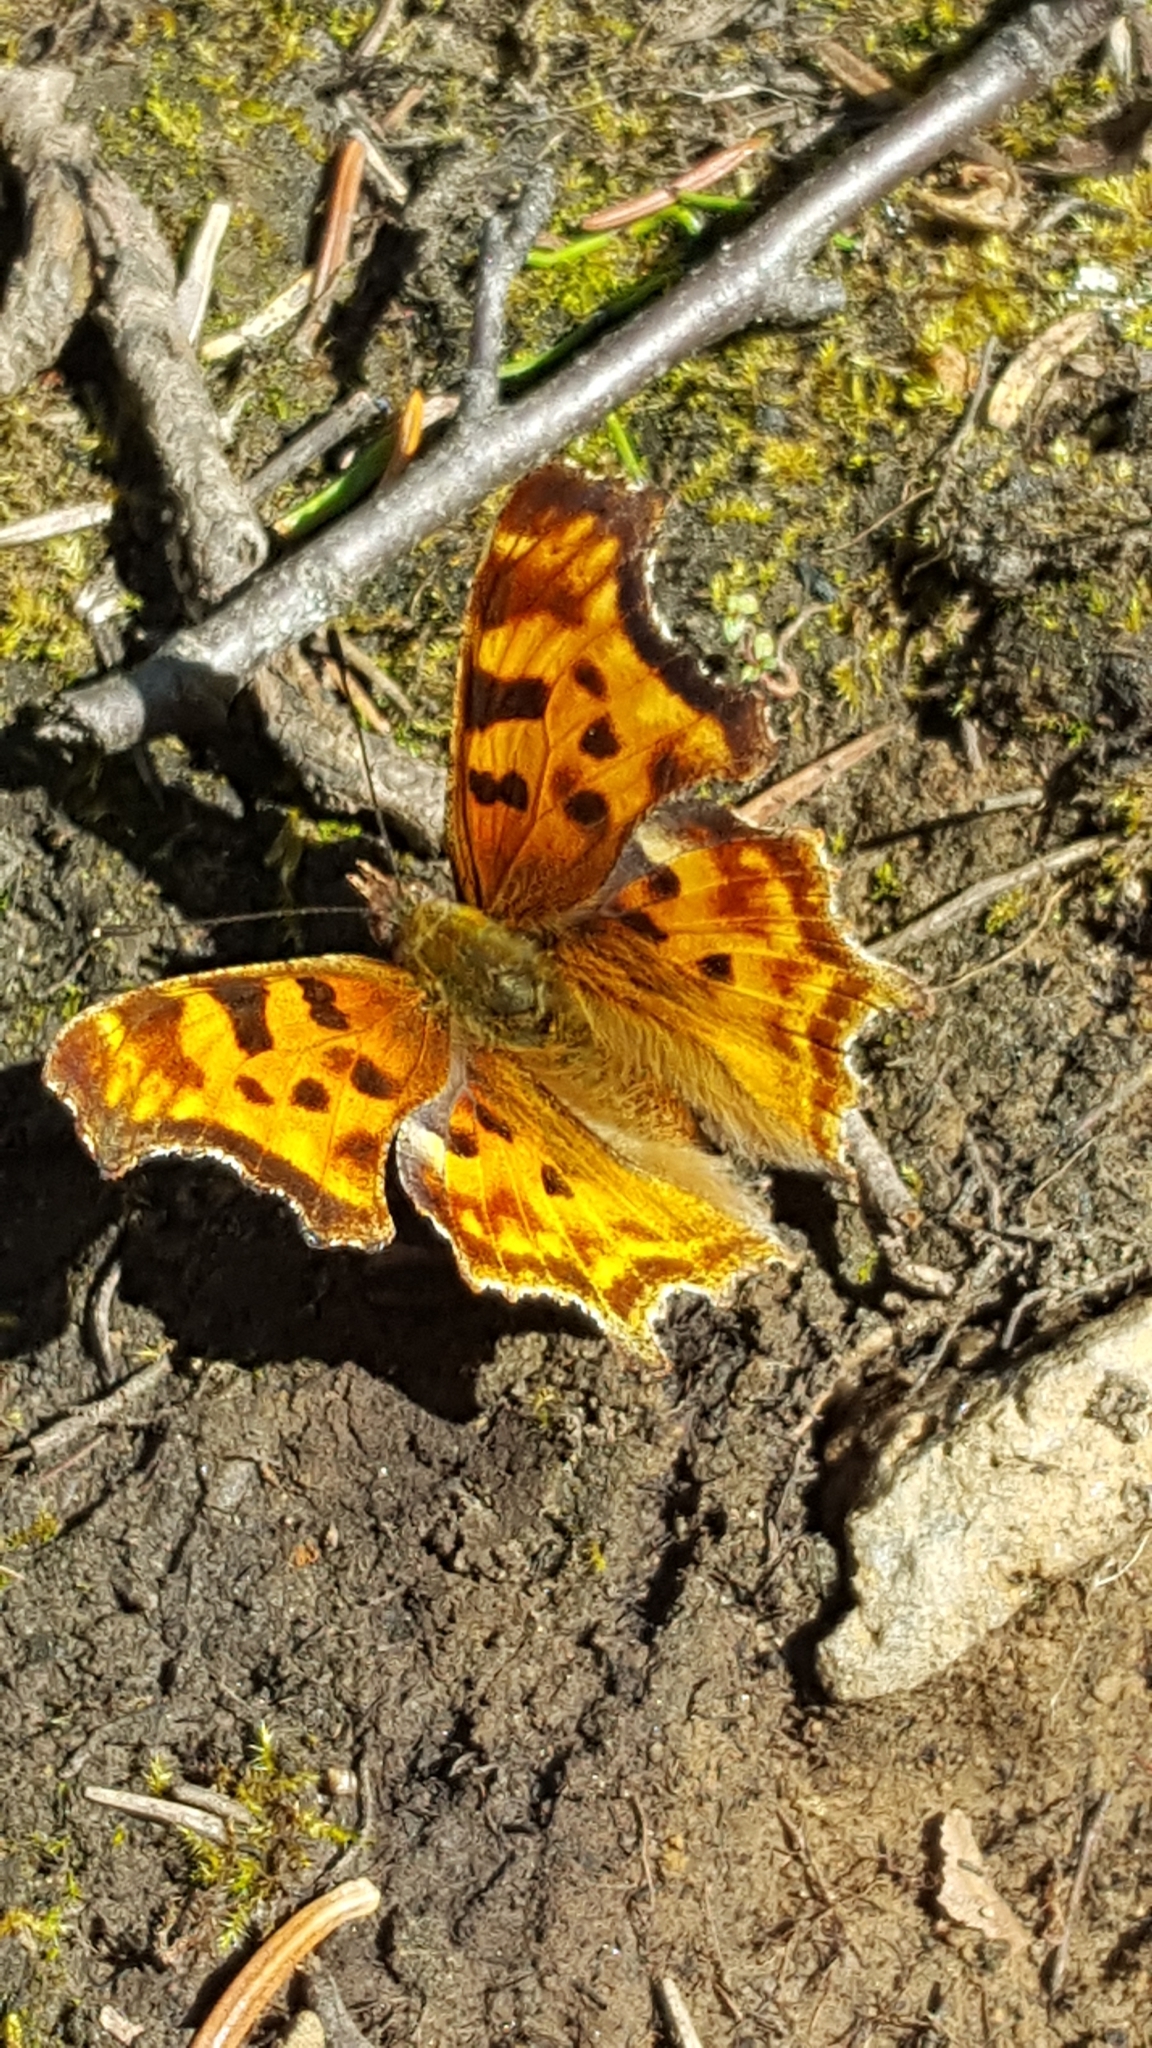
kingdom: Animalia
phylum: Arthropoda
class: Insecta
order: Lepidoptera
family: Nymphalidae
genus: Polygonia
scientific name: Polygonia satyrus
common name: Satyr angle wing
